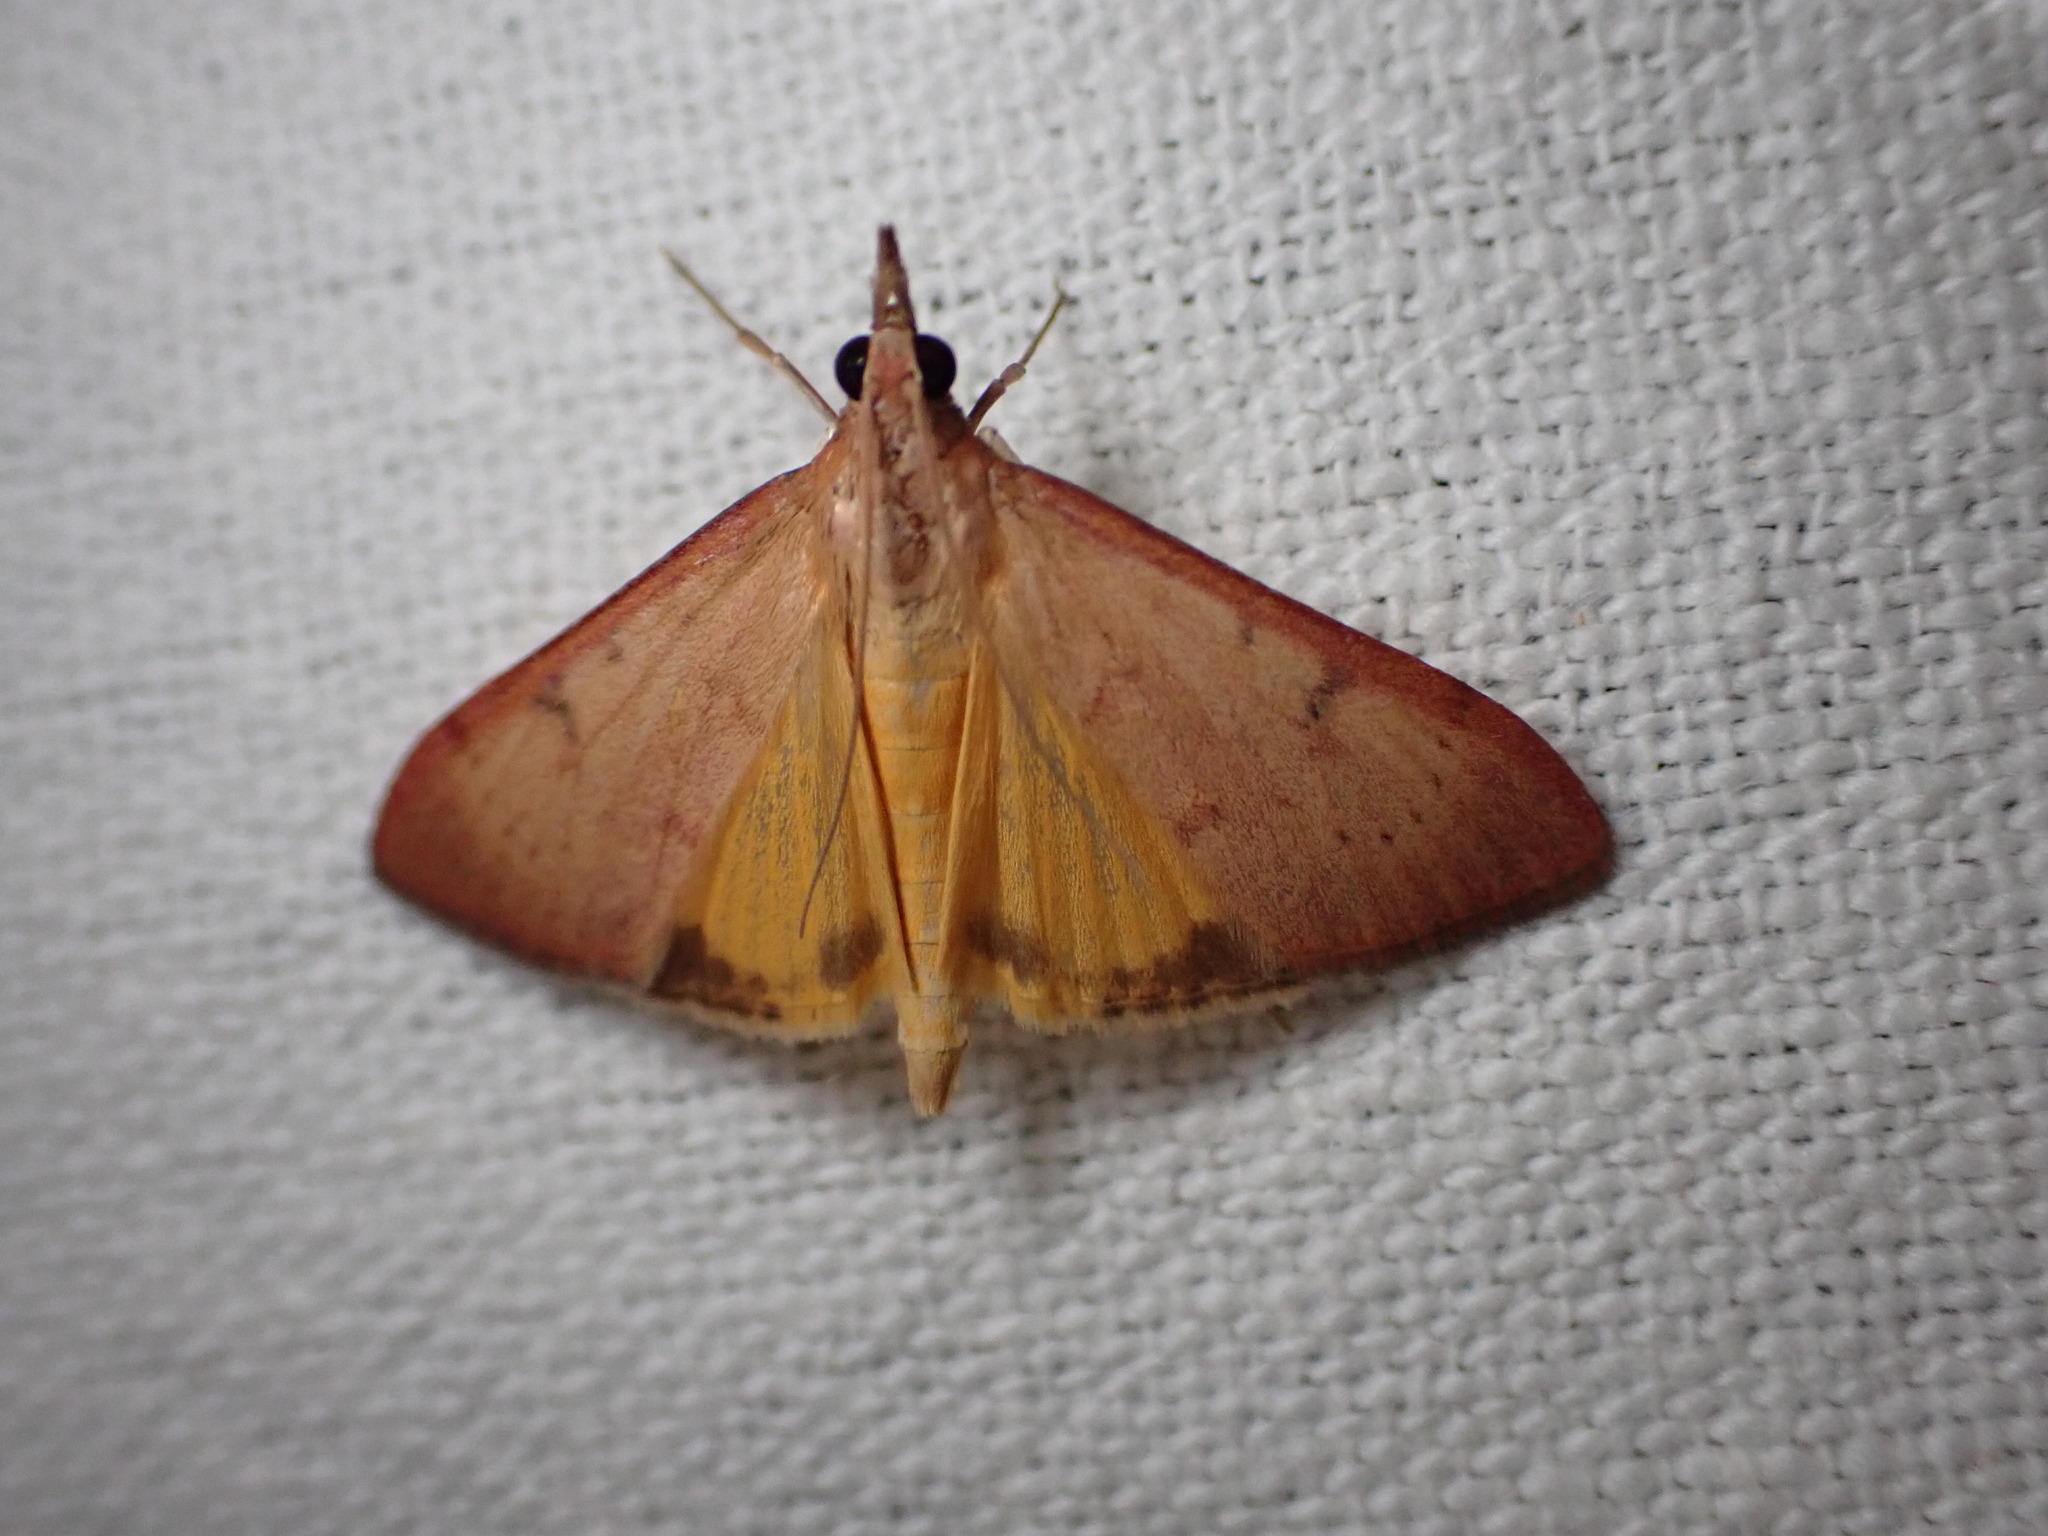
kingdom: Animalia
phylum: Arthropoda
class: Insecta
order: Lepidoptera
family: Crambidae
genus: Uresiphita
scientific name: Uresiphita gilvata
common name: Yellow-underwing pearl
